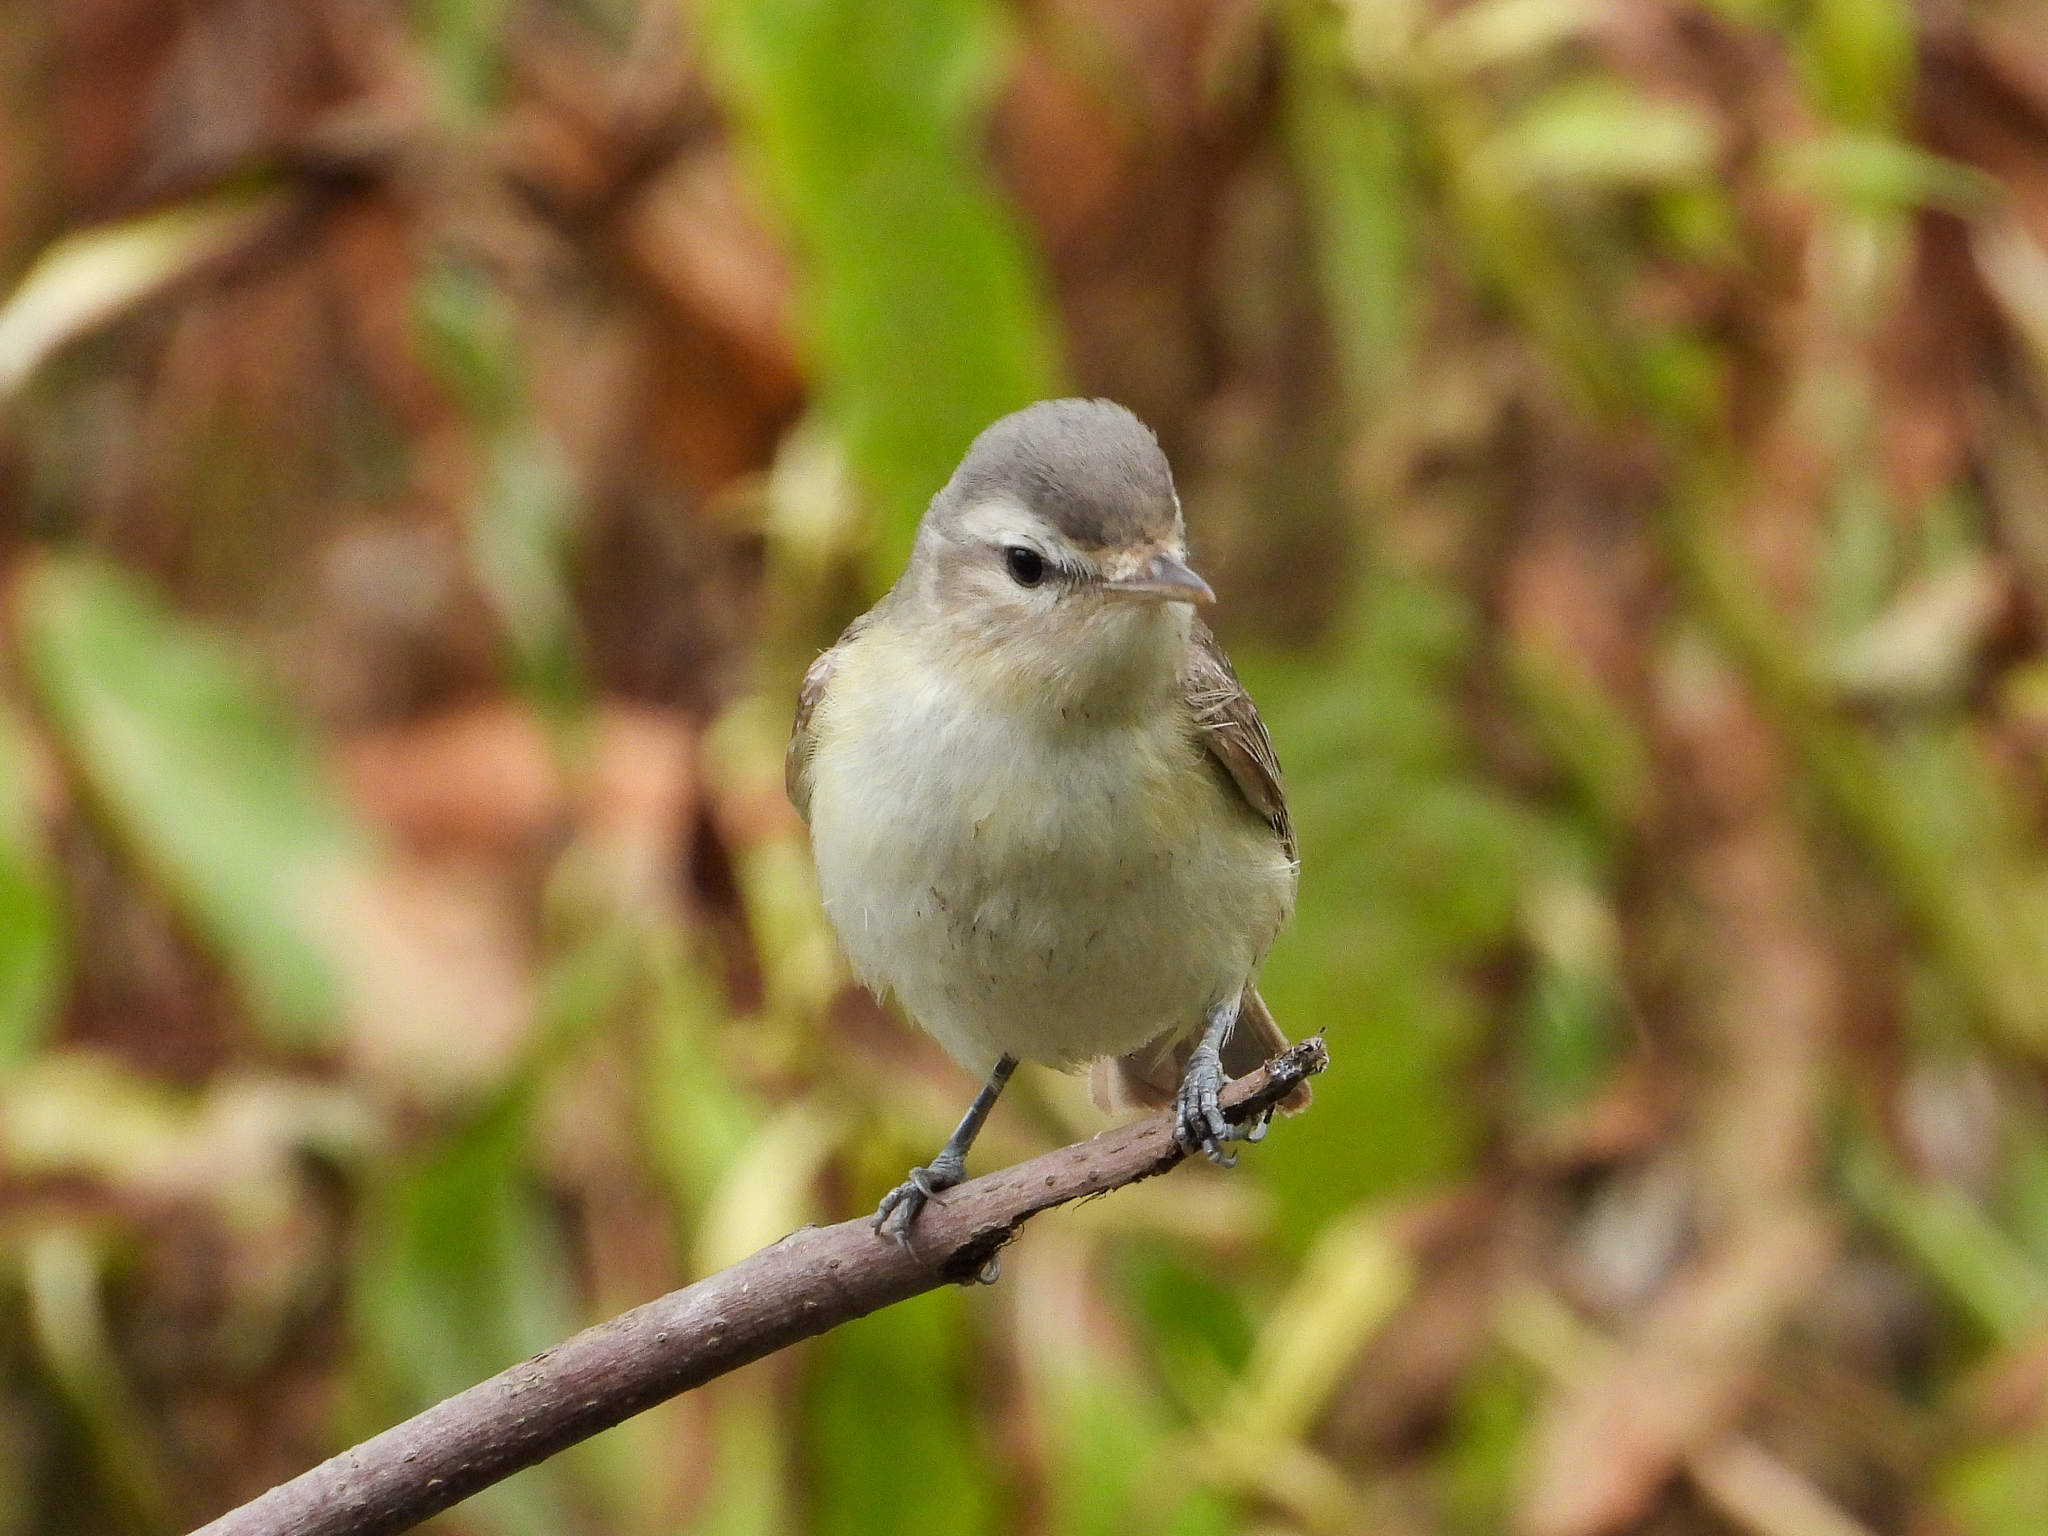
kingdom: Animalia
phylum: Chordata
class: Aves
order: Passeriformes
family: Vireonidae
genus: Vireo
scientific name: Vireo gilvus
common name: Warbling vireo
